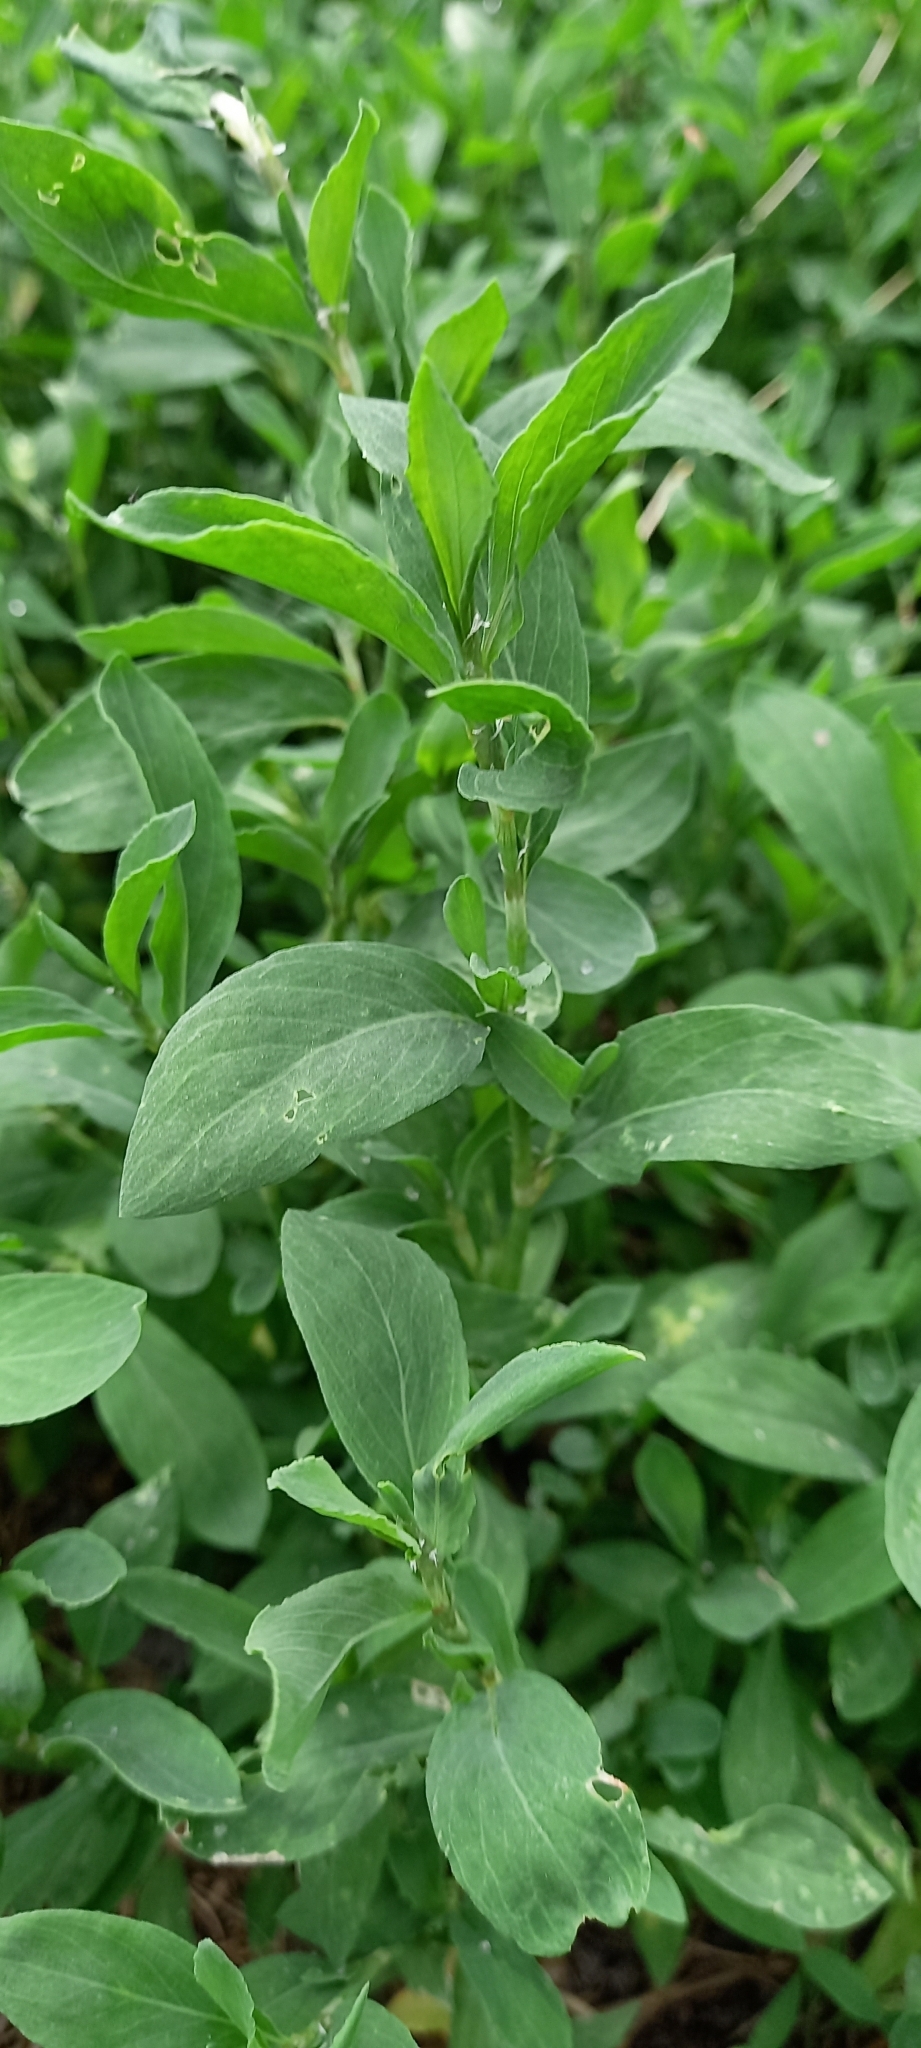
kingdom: Plantae
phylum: Tracheophyta
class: Magnoliopsida
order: Caryophyllales
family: Polygonaceae
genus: Polygonum
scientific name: Polygonum
